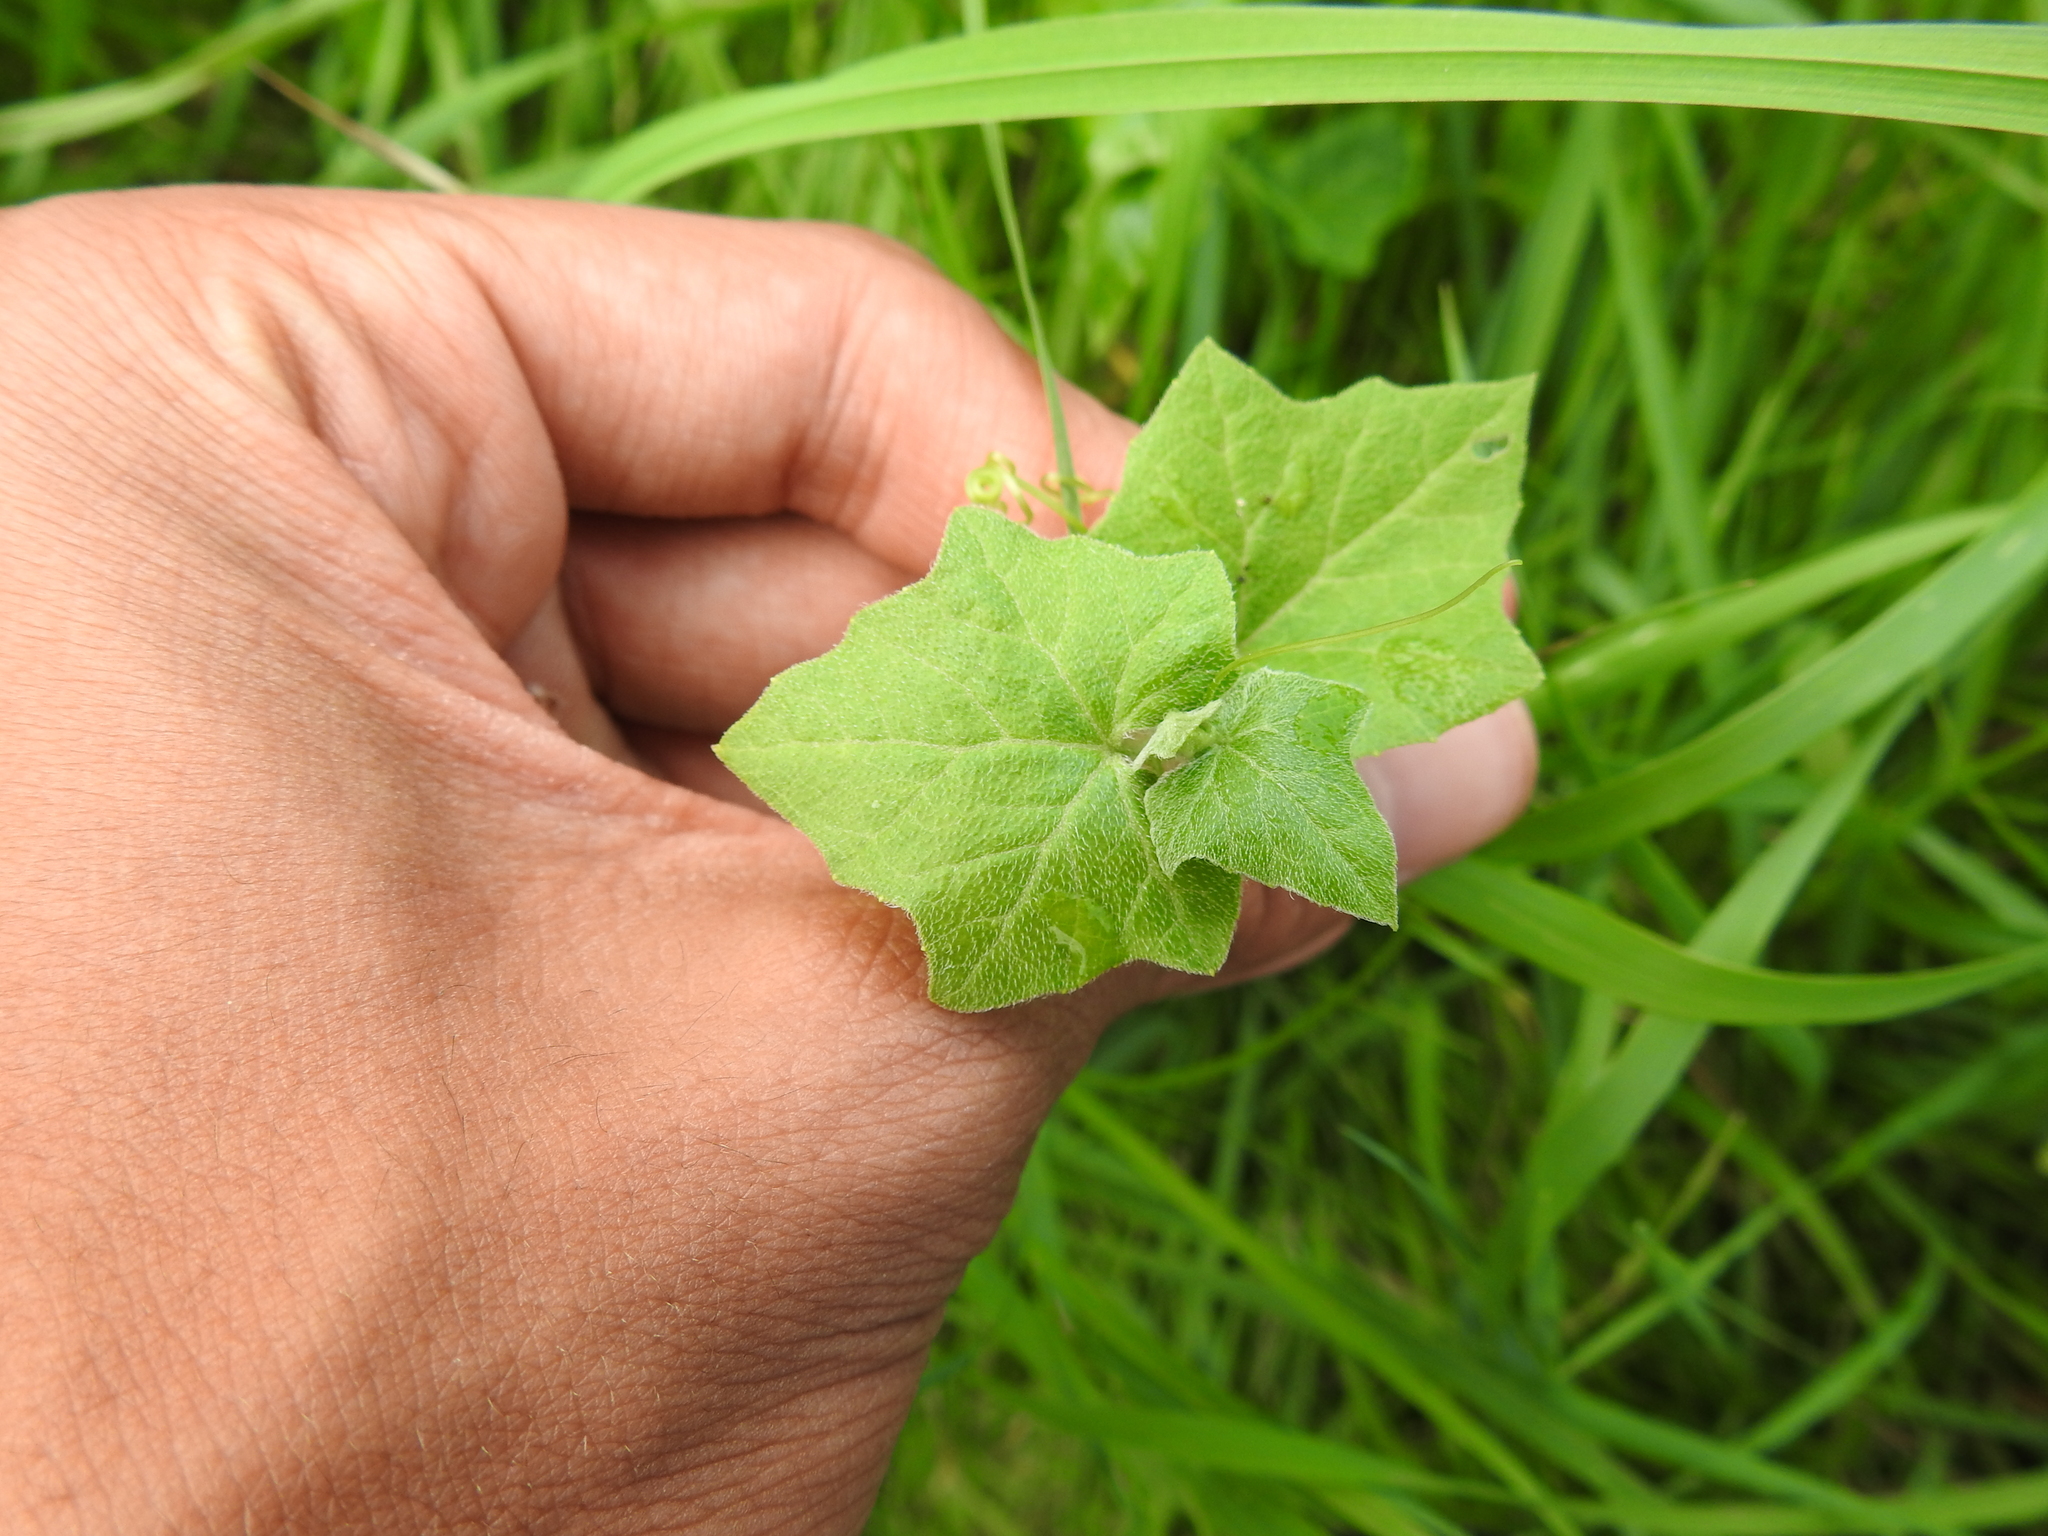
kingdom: Plantae
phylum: Tracheophyta
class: Magnoliopsida
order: Cucurbitales
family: Cucurbitaceae
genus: Bryonia
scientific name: Bryonia cretica
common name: Cretan bryony
